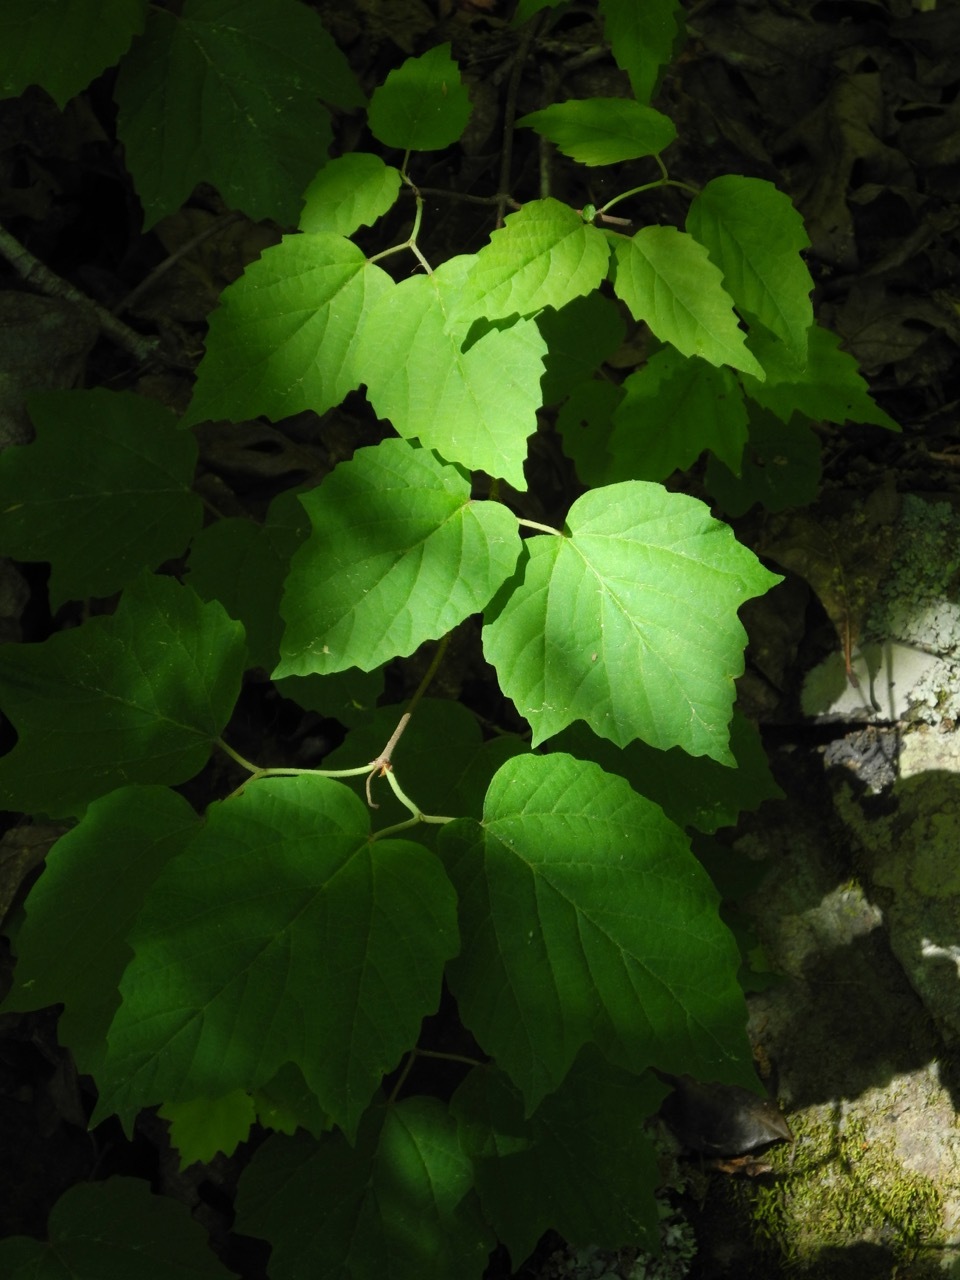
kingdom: Plantae
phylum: Tracheophyta
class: Magnoliopsida
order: Dipsacales
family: Viburnaceae
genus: Viburnum
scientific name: Viburnum acerifolium
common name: Dockmackie
